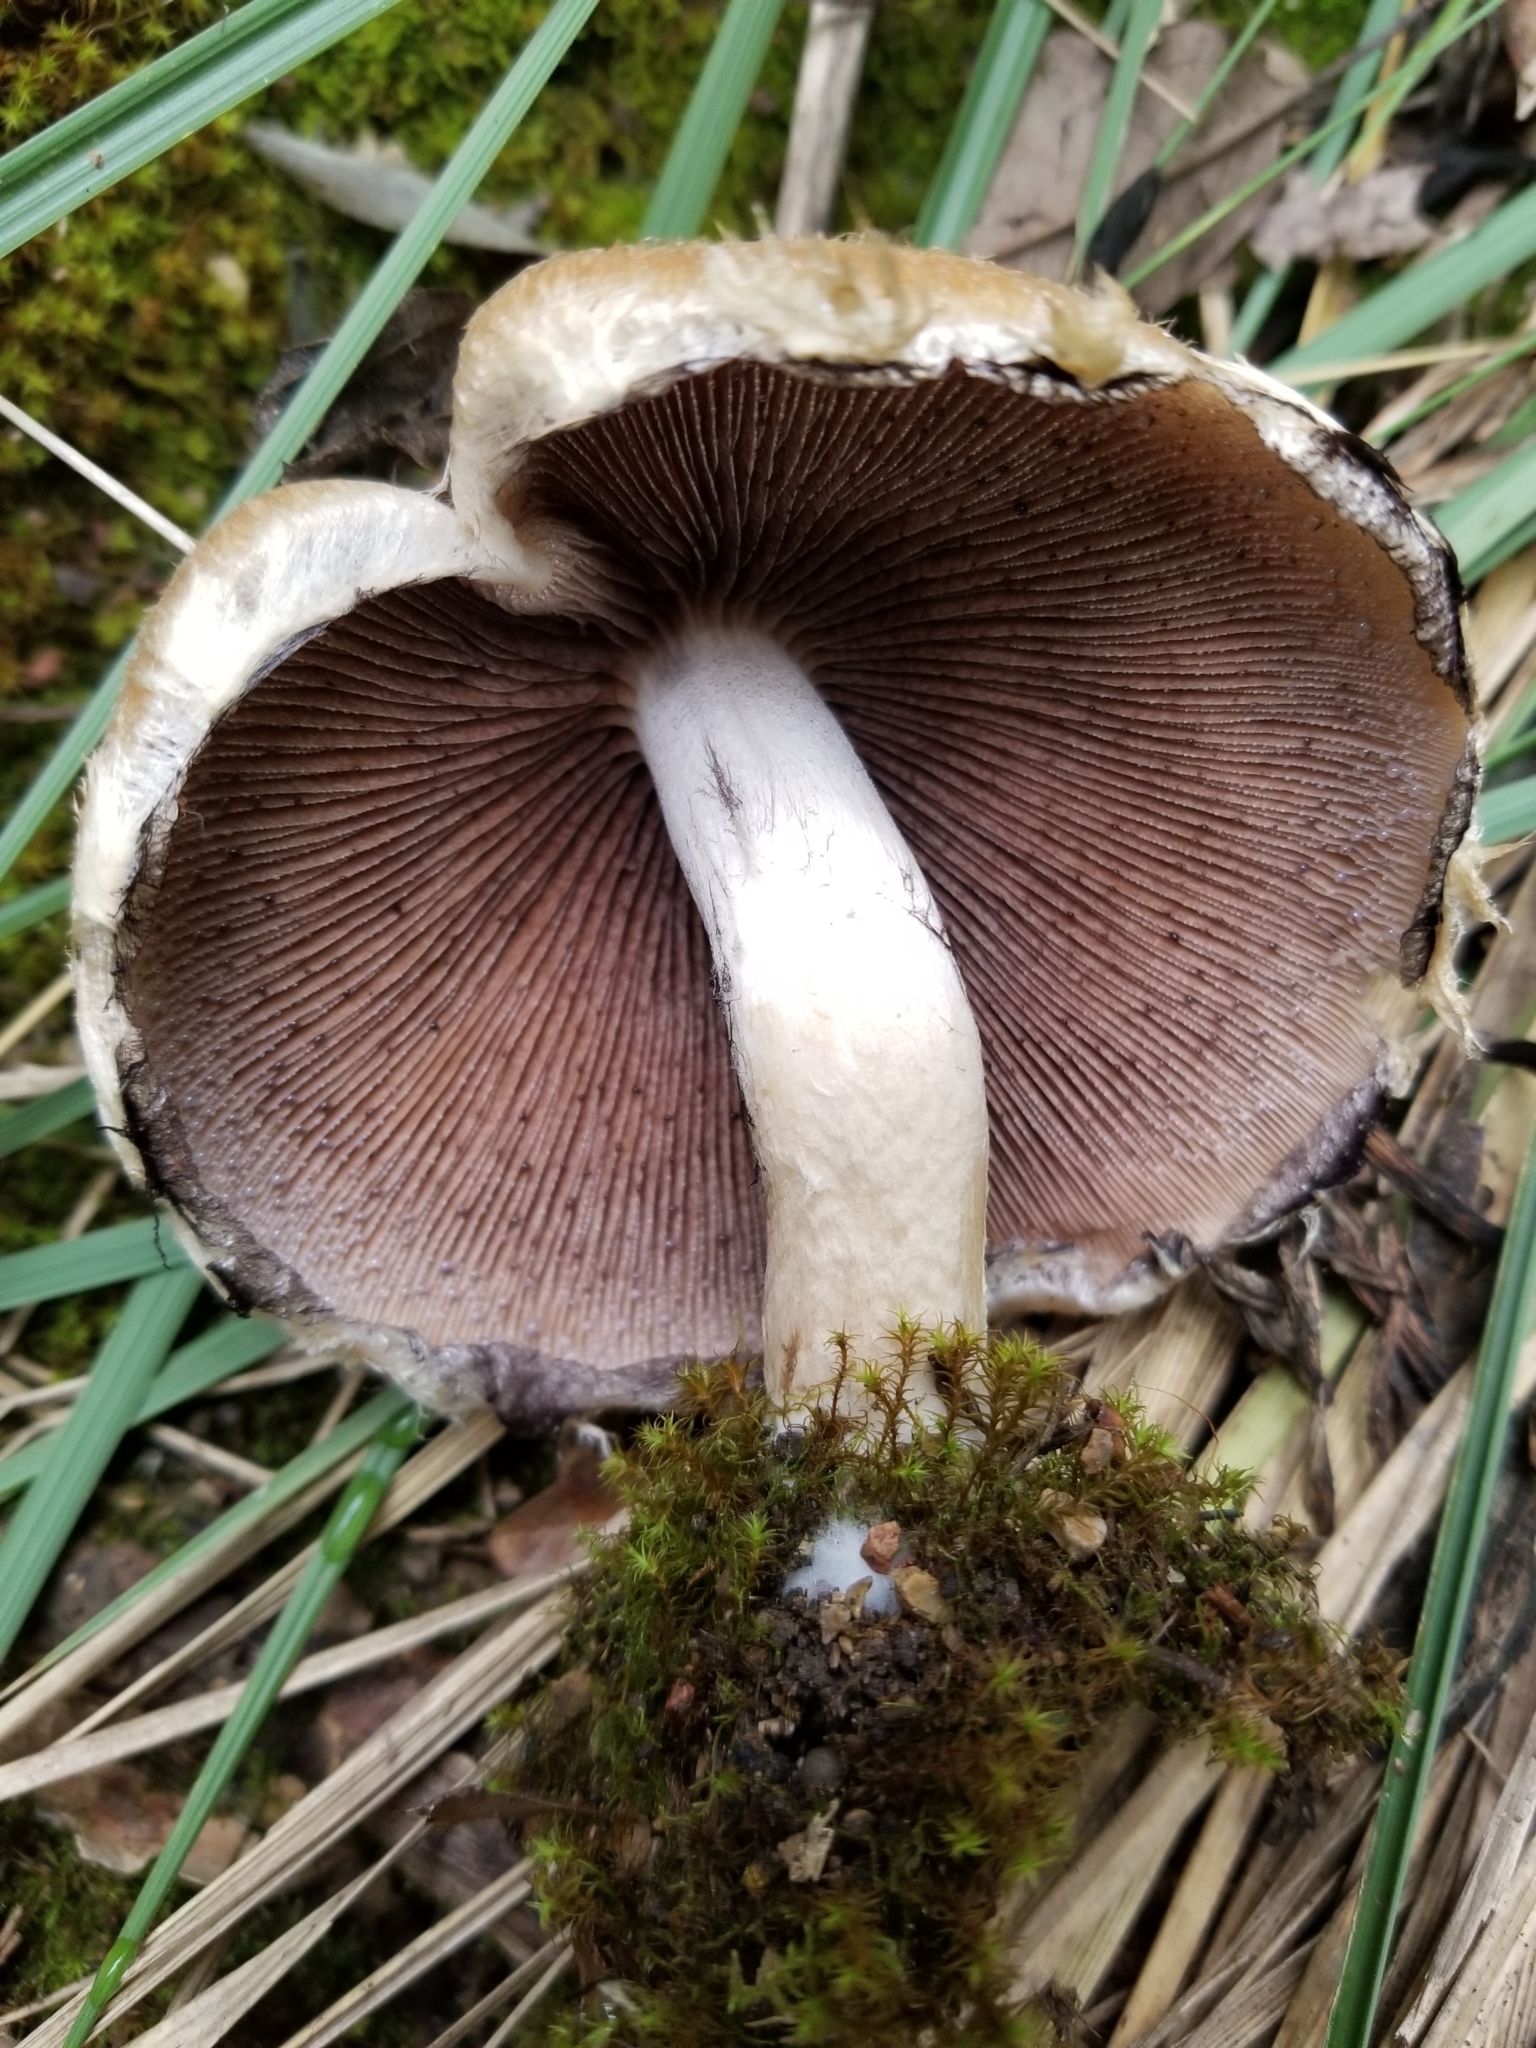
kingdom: Fungi
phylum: Basidiomycota
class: Agaricomycetes
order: Agaricales
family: Psathyrellaceae
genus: Lacrymaria
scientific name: Lacrymaria lacrymabunda
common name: Weeping widow
